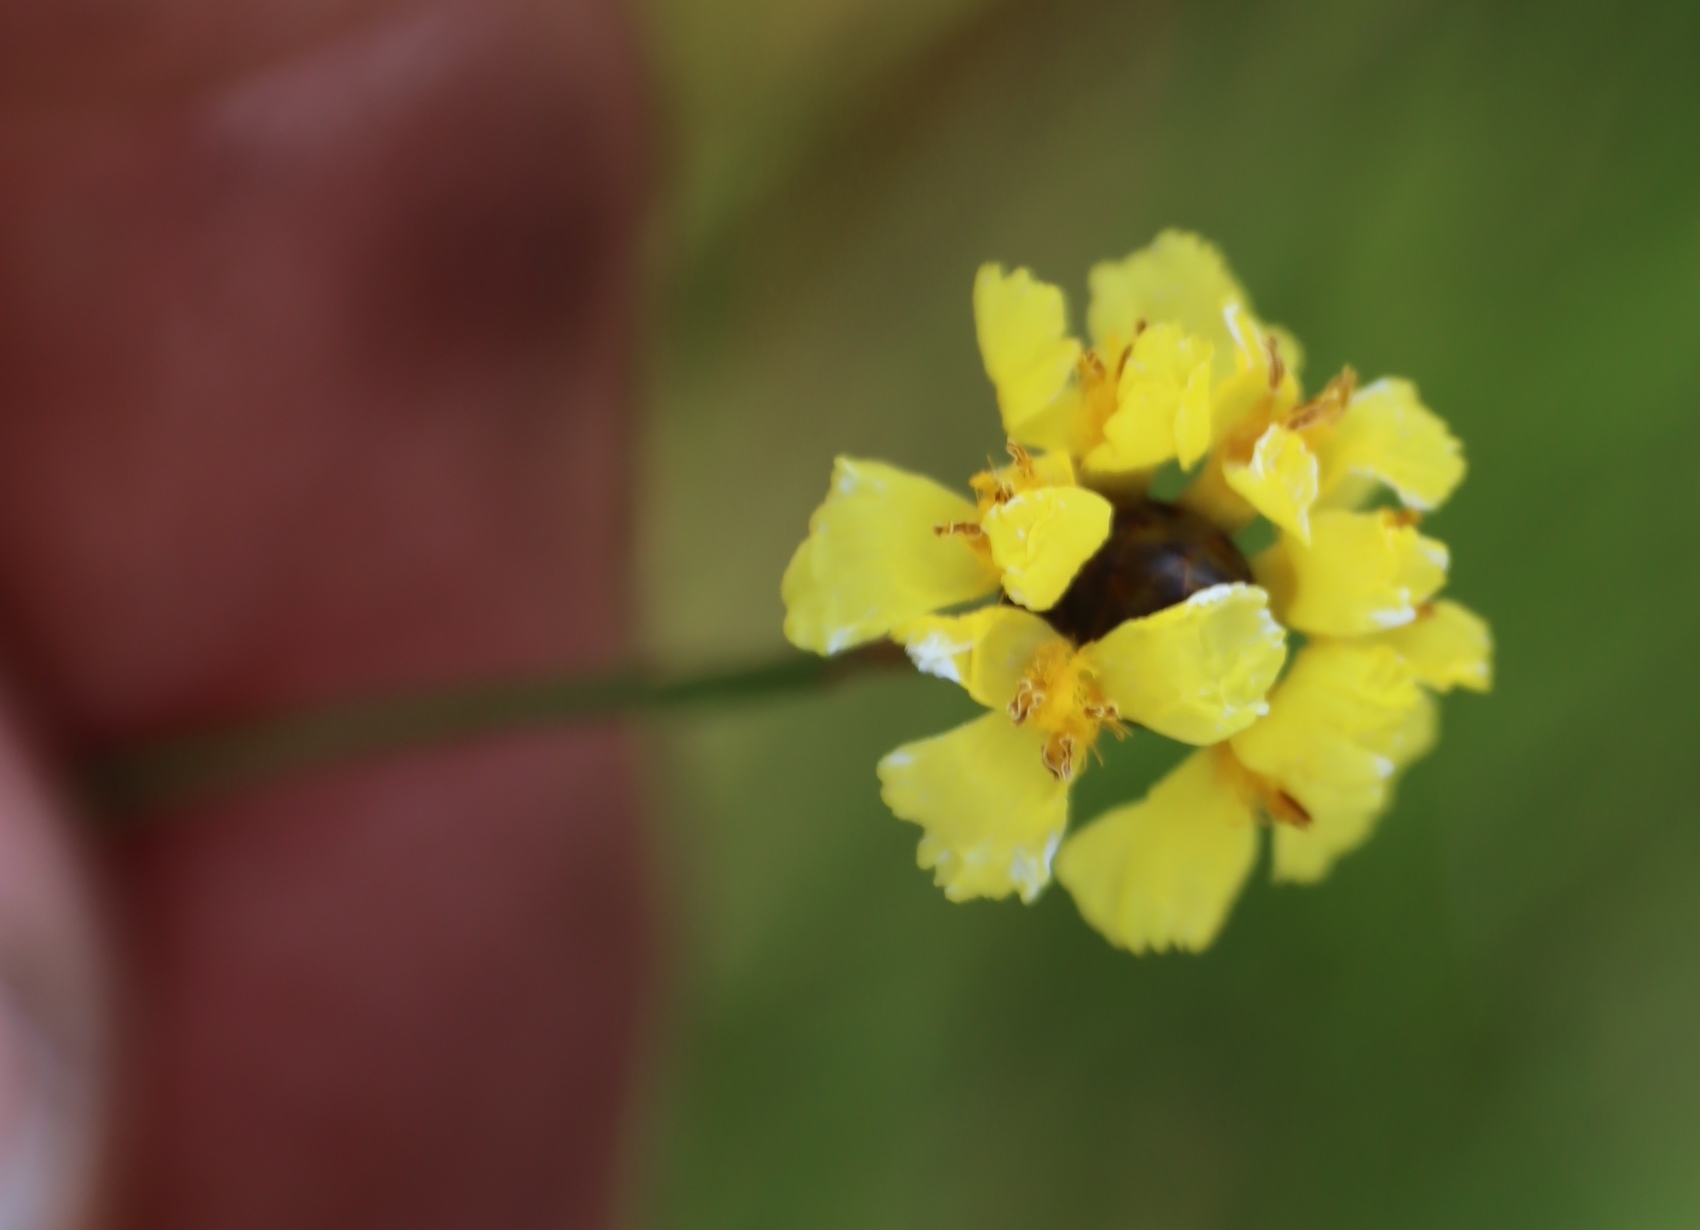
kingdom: Plantae
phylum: Tracheophyta
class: Liliopsida
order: Poales
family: Xyridaceae
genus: Xyris
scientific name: Xyris capensis
